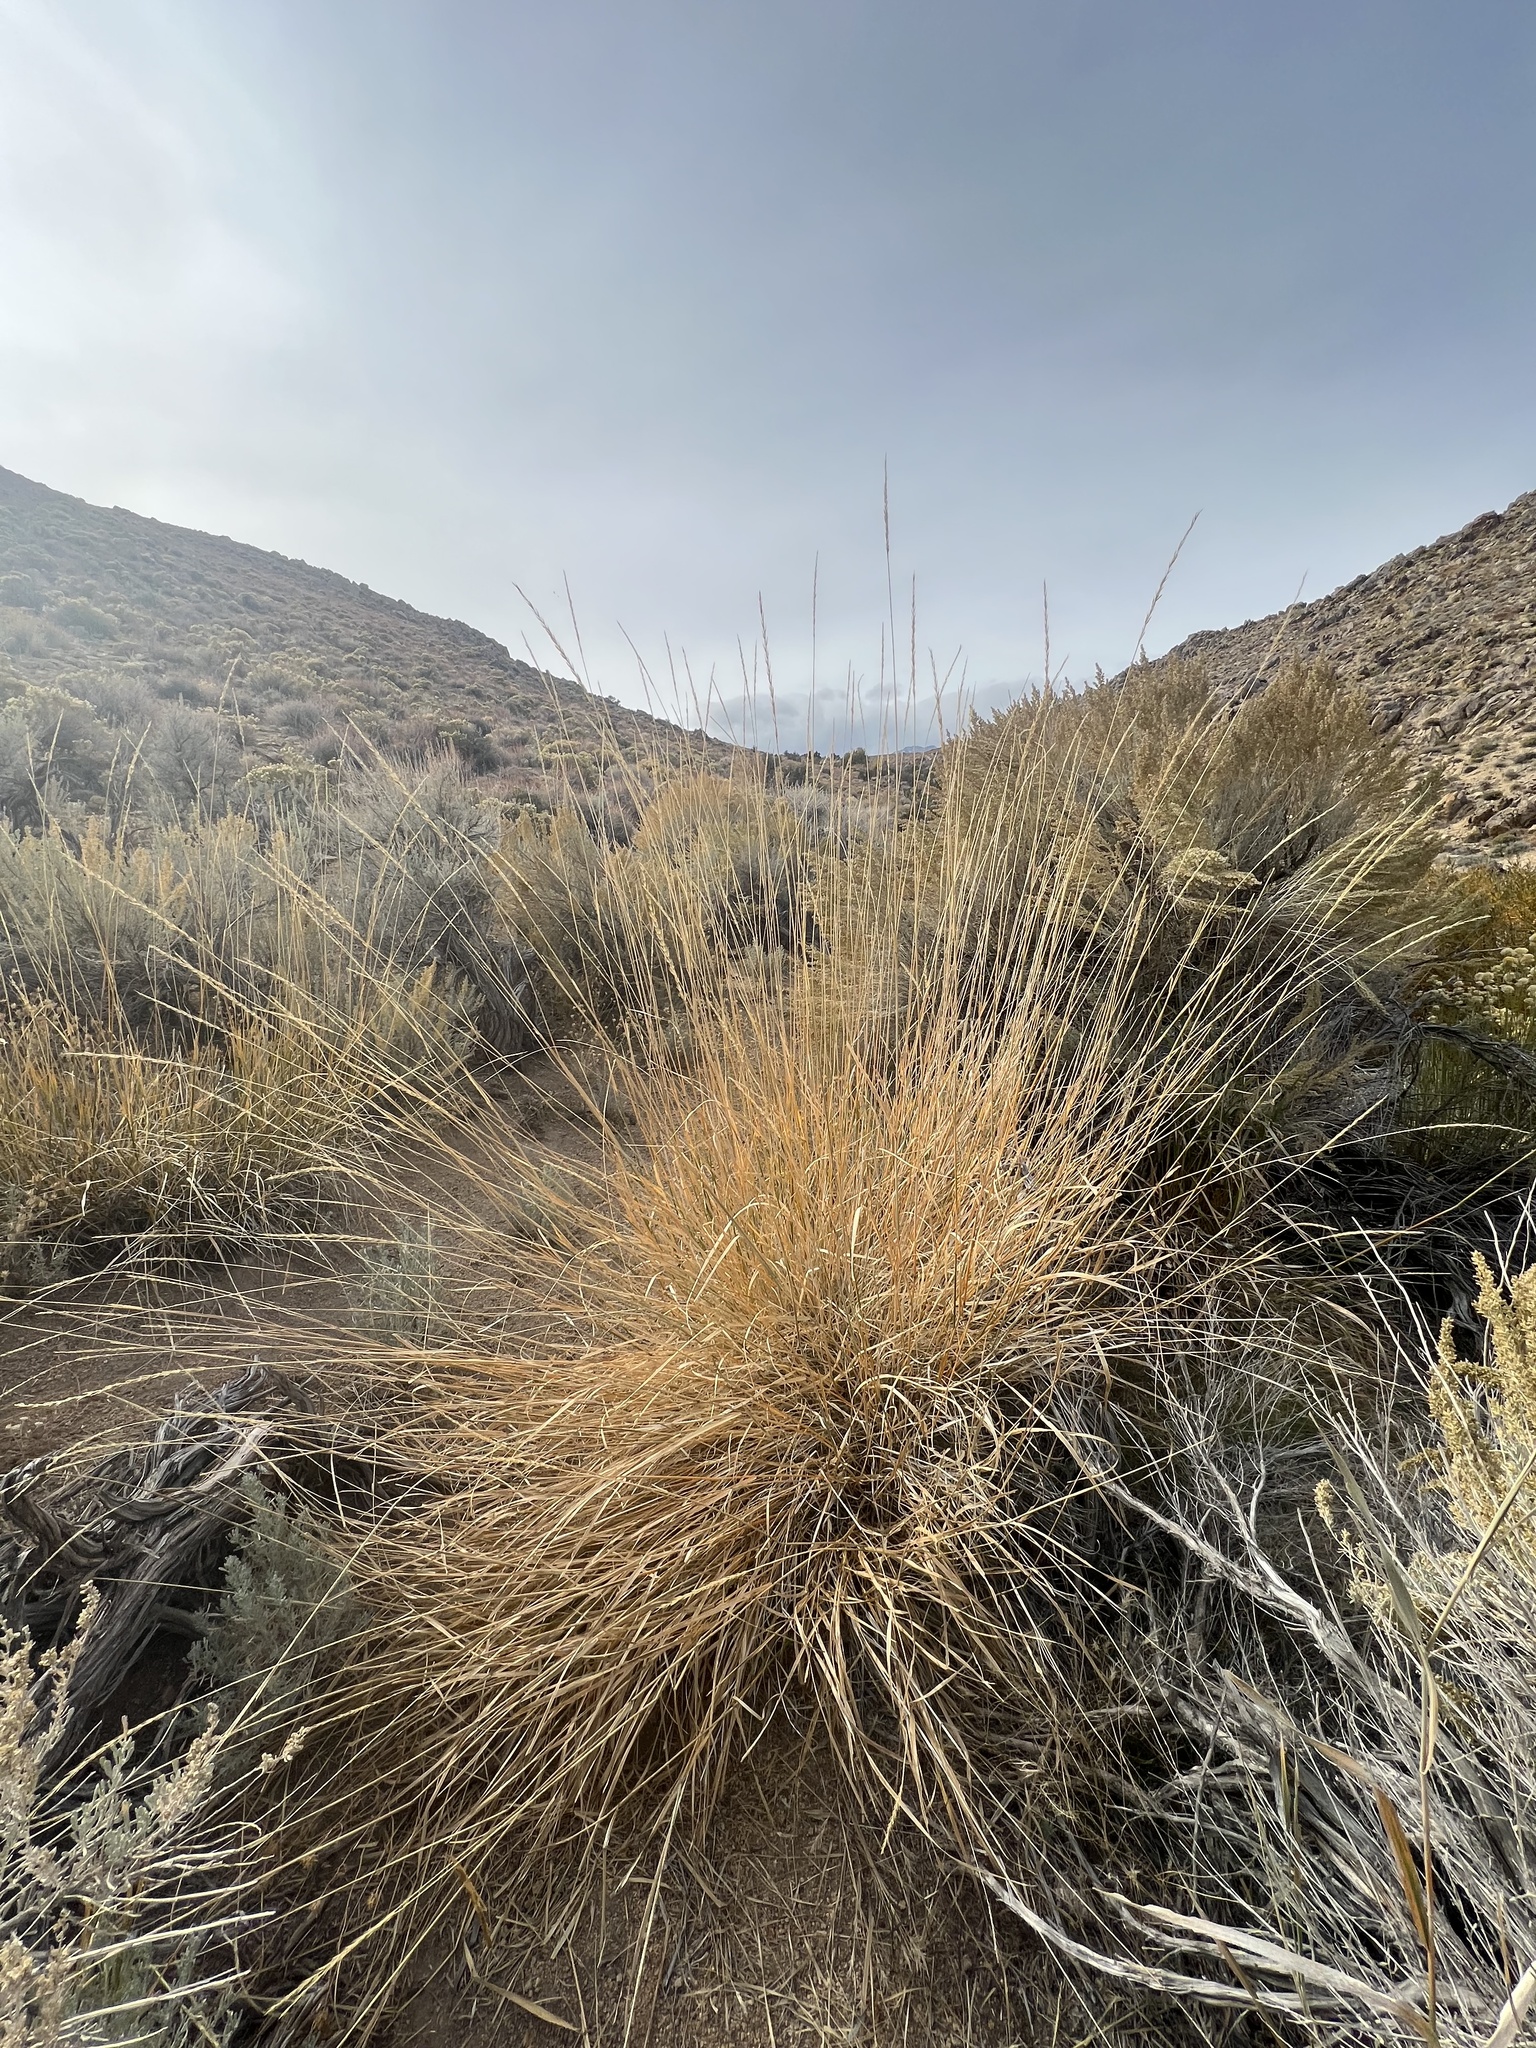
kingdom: Plantae
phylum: Tracheophyta
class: Liliopsida
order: Poales
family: Poaceae
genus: Leymus
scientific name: Leymus cinereus
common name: Basin wild rye
